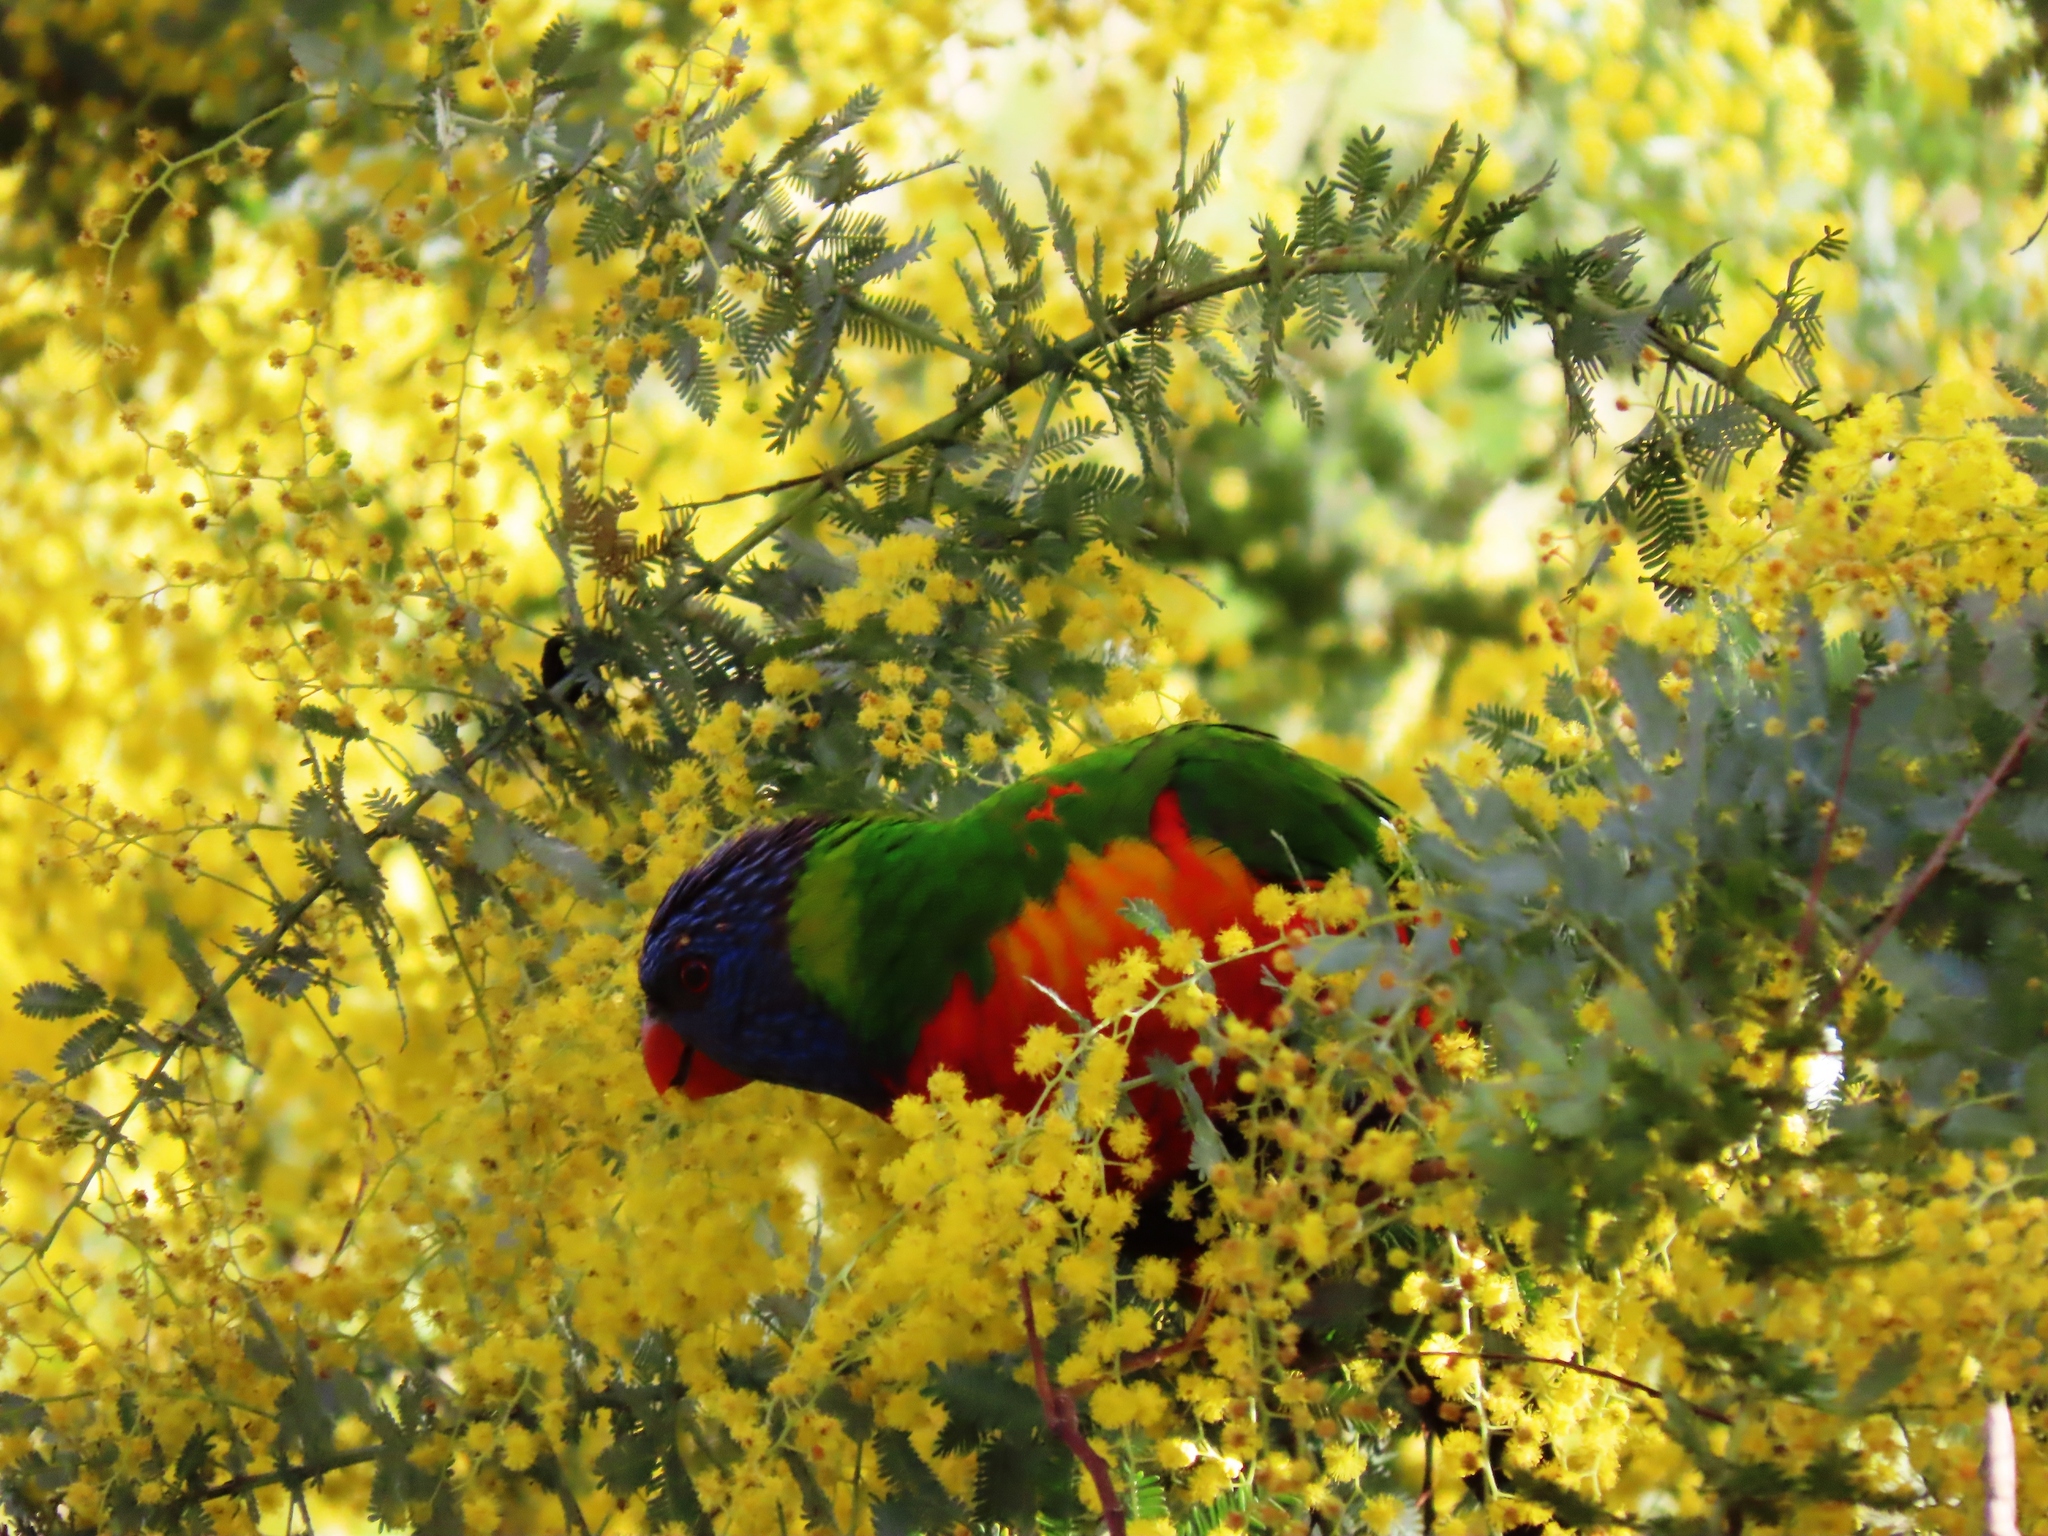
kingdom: Animalia
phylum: Chordata
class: Aves
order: Psittaciformes
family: Psittacidae
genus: Trichoglossus
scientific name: Trichoglossus haematodus
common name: Coconut lorikeet
